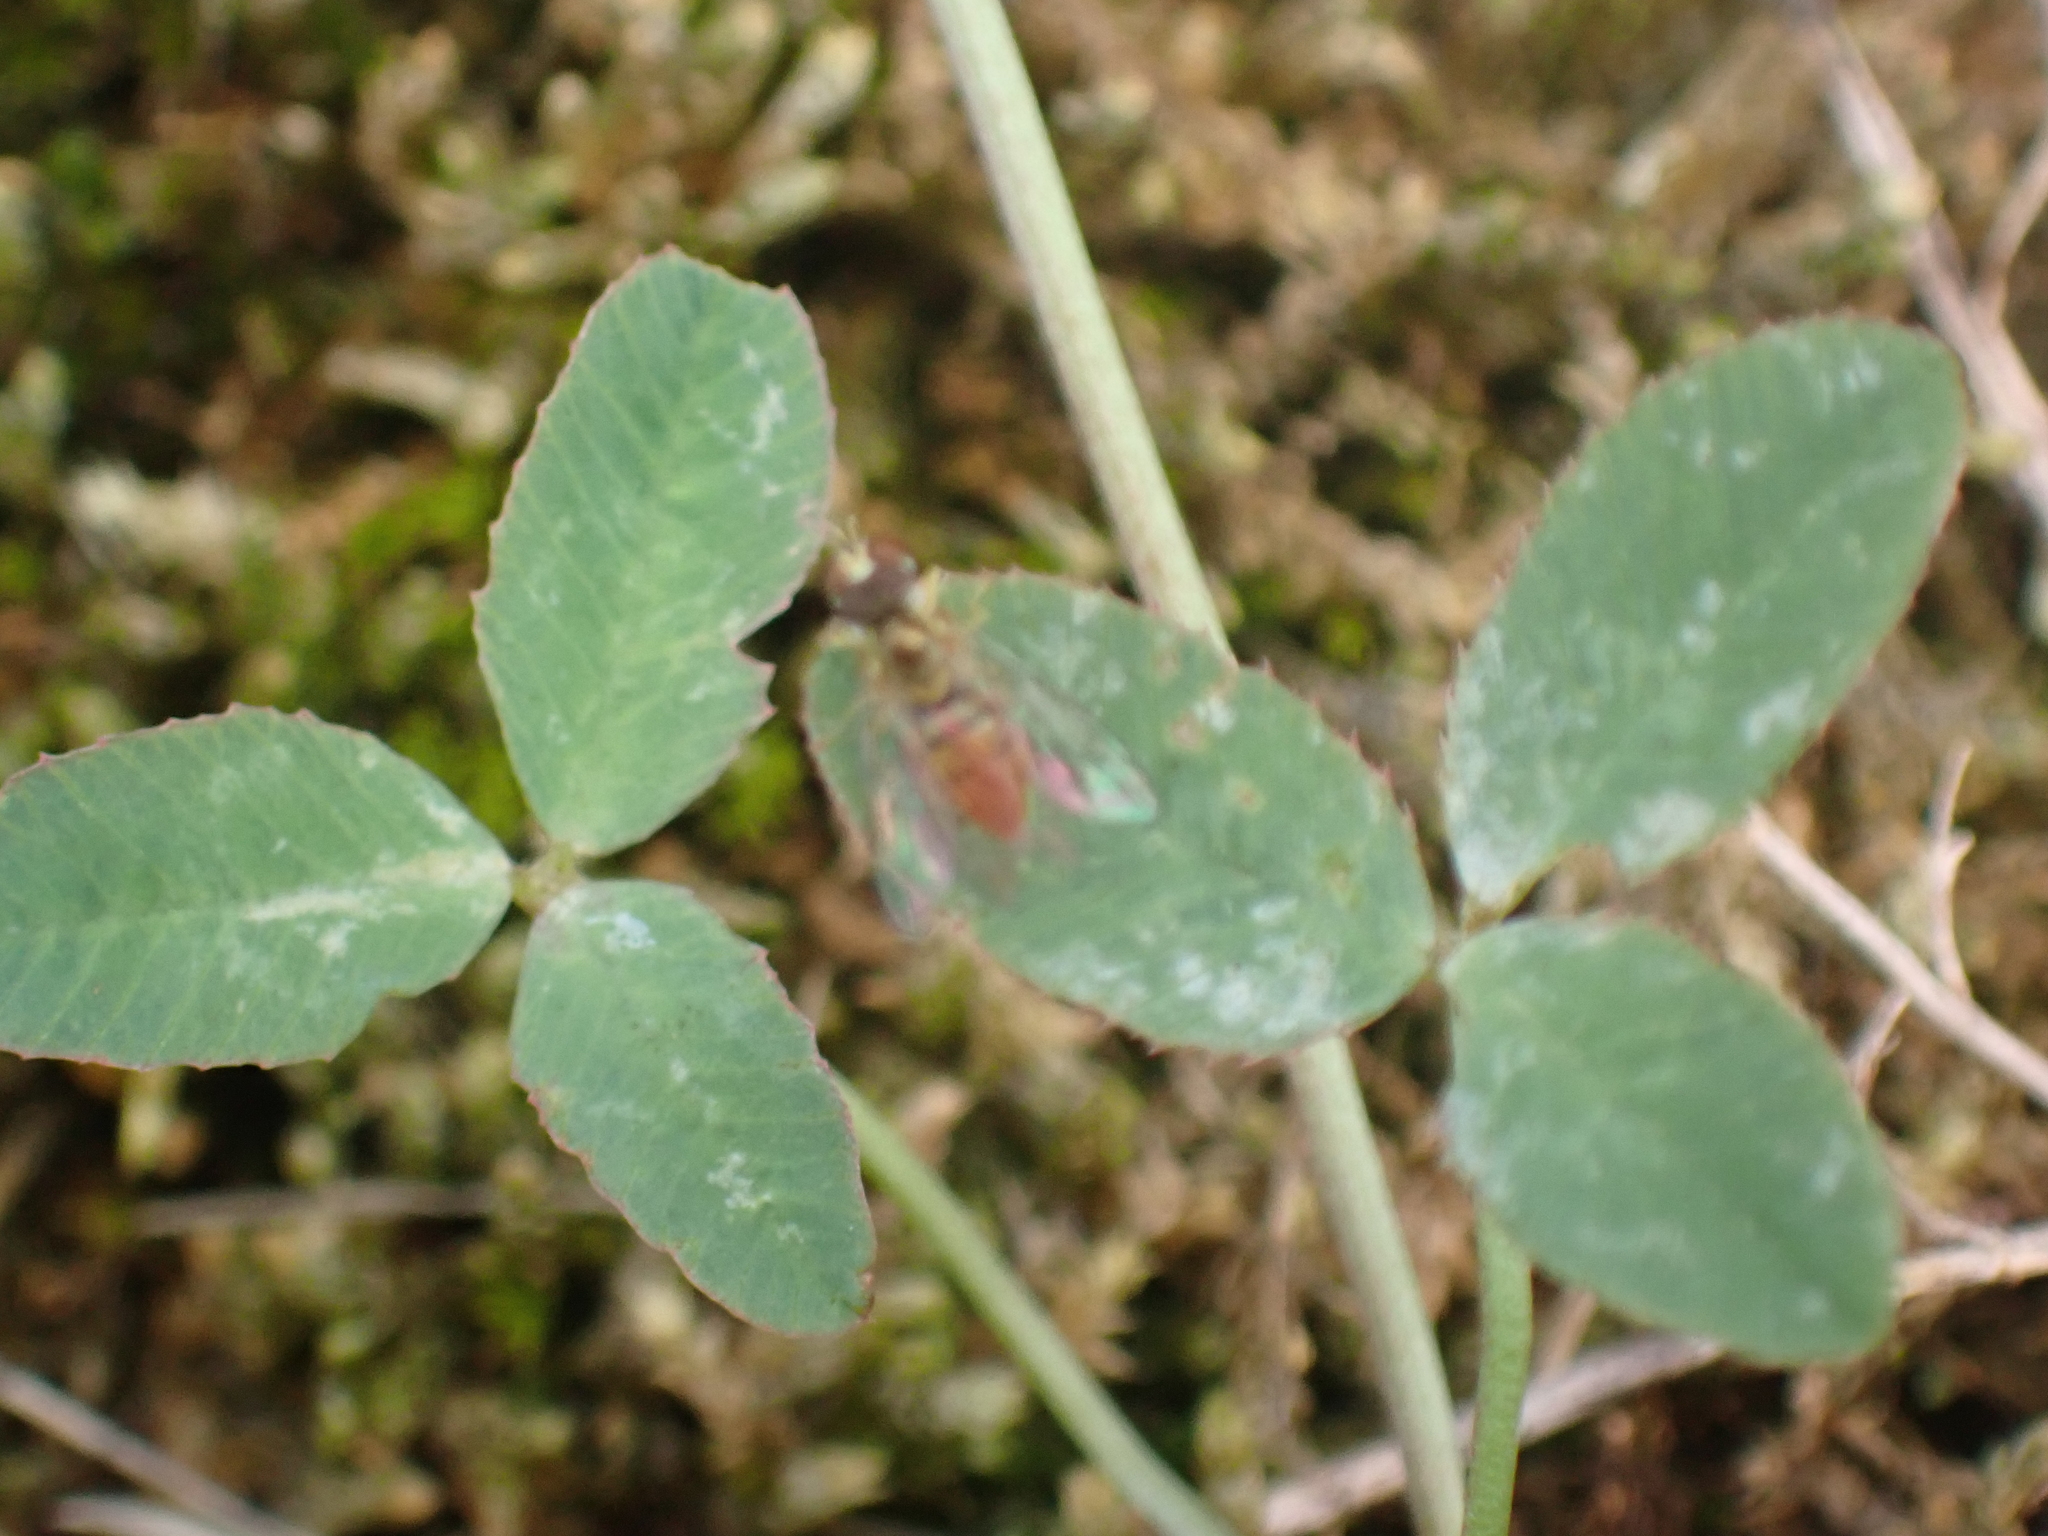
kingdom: Animalia
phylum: Arthropoda
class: Insecta
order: Diptera
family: Syrphidae
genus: Toxomerus
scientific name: Toxomerus marginatus
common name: Syrphid fly
